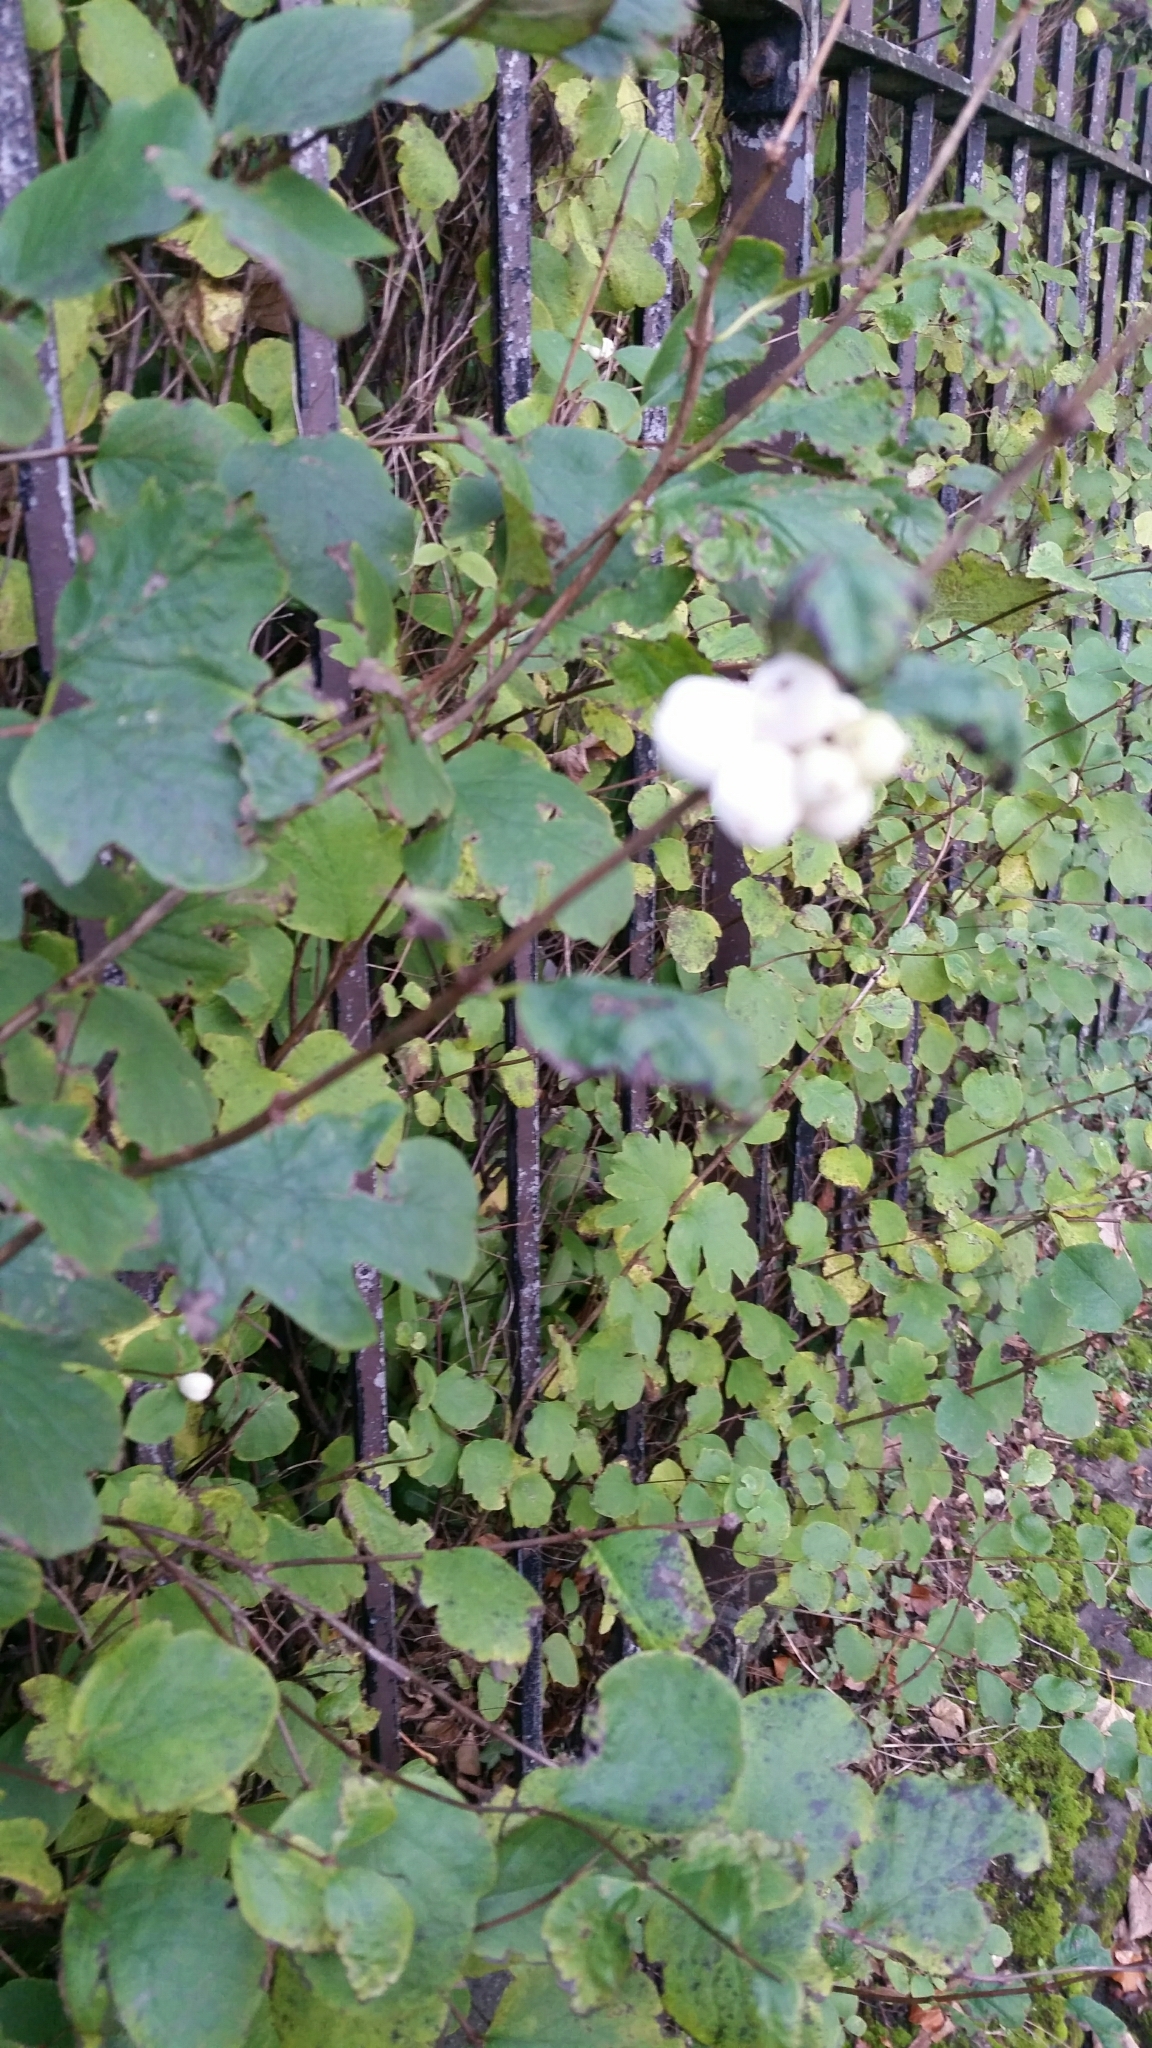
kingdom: Plantae
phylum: Tracheophyta
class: Magnoliopsida
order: Dipsacales
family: Caprifoliaceae
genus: Symphoricarpos
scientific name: Symphoricarpos albus
